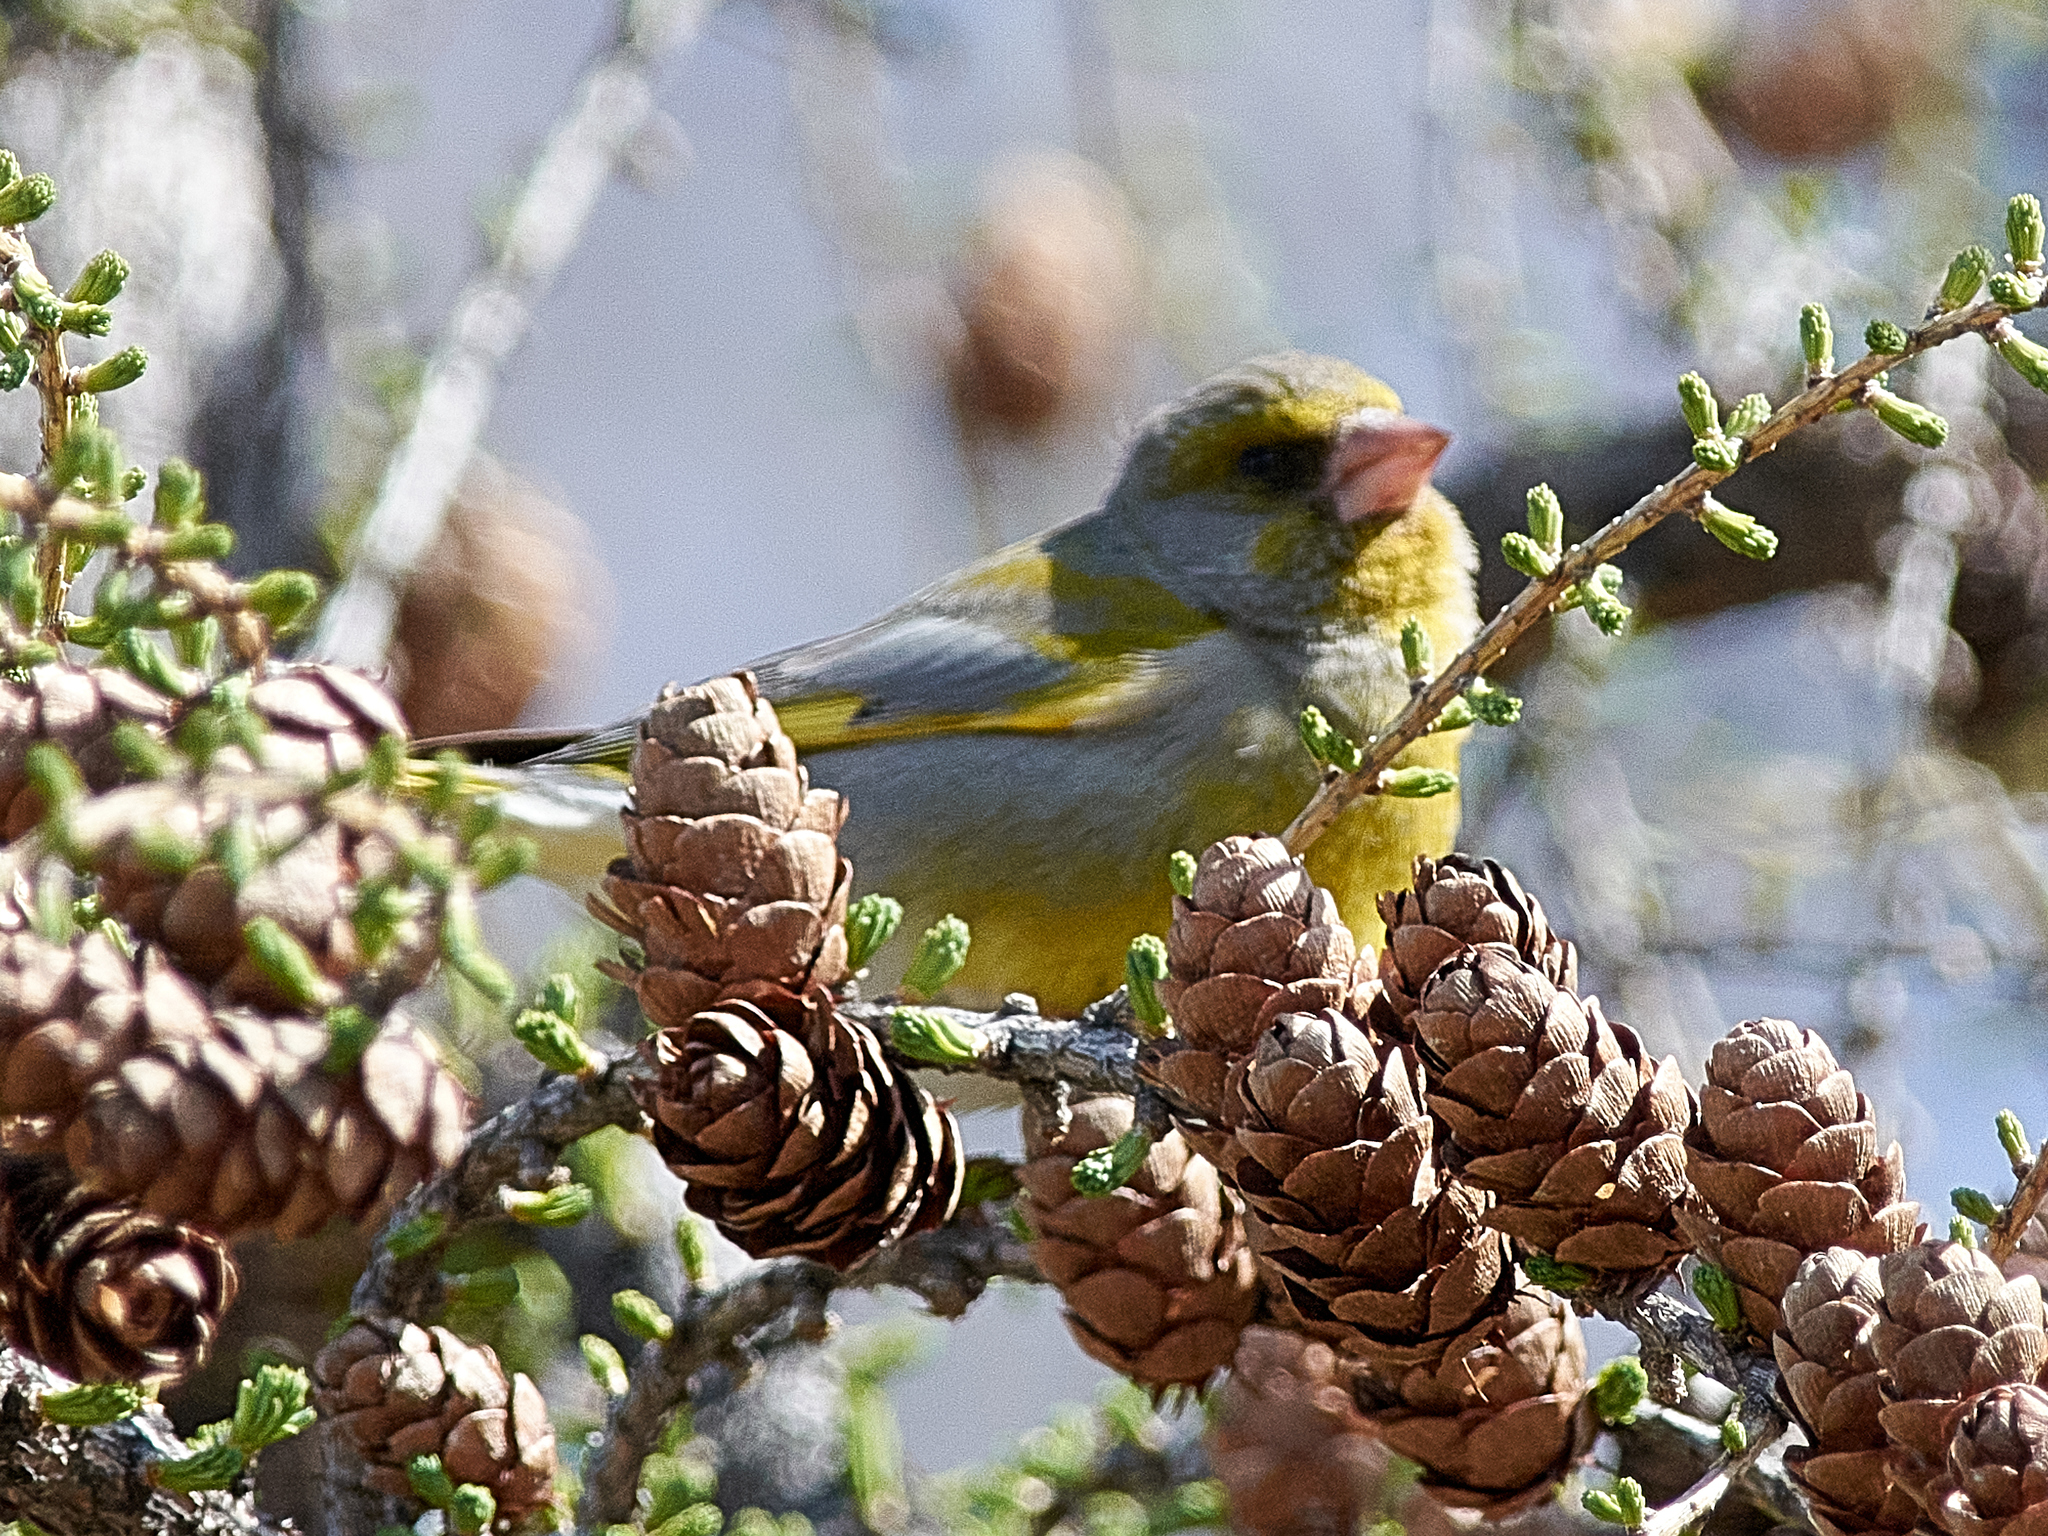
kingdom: Plantae
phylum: Tracheophyta
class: Liliopsida
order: Poales
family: Poaceae
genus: Chloris
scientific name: Chloris chloris
